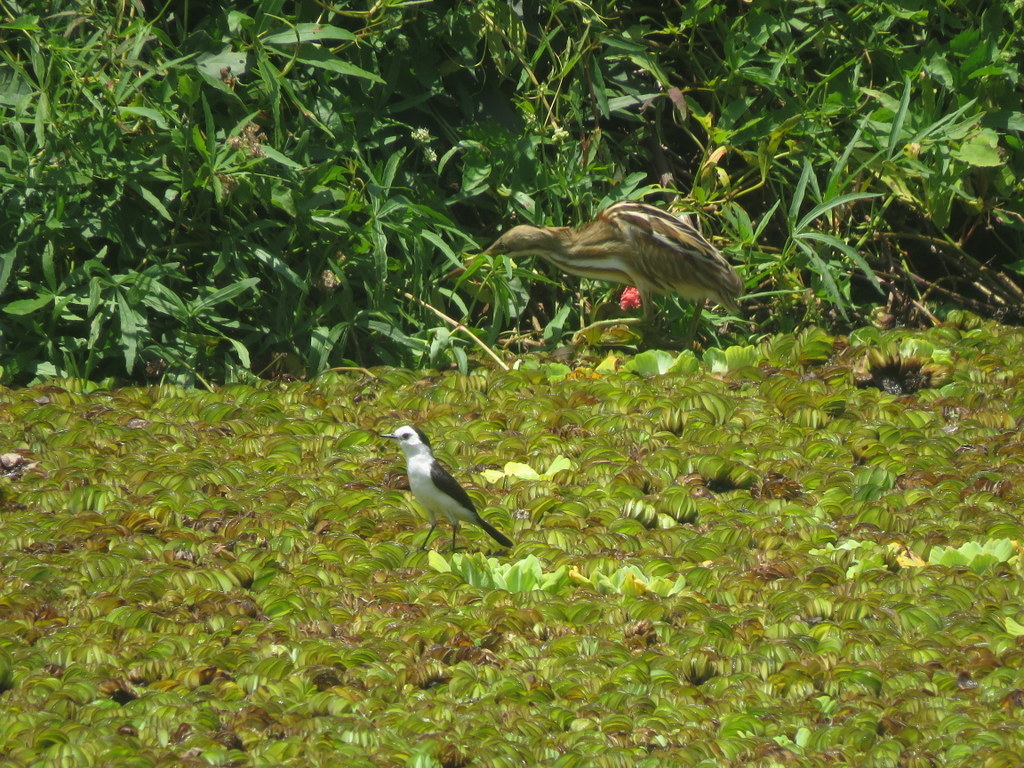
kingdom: Animalia
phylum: Chordata
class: Aves
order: Passeriformes
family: Tyrannidae
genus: Fluvicola
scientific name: Fluvicola pica
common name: Pied water-tyrant
